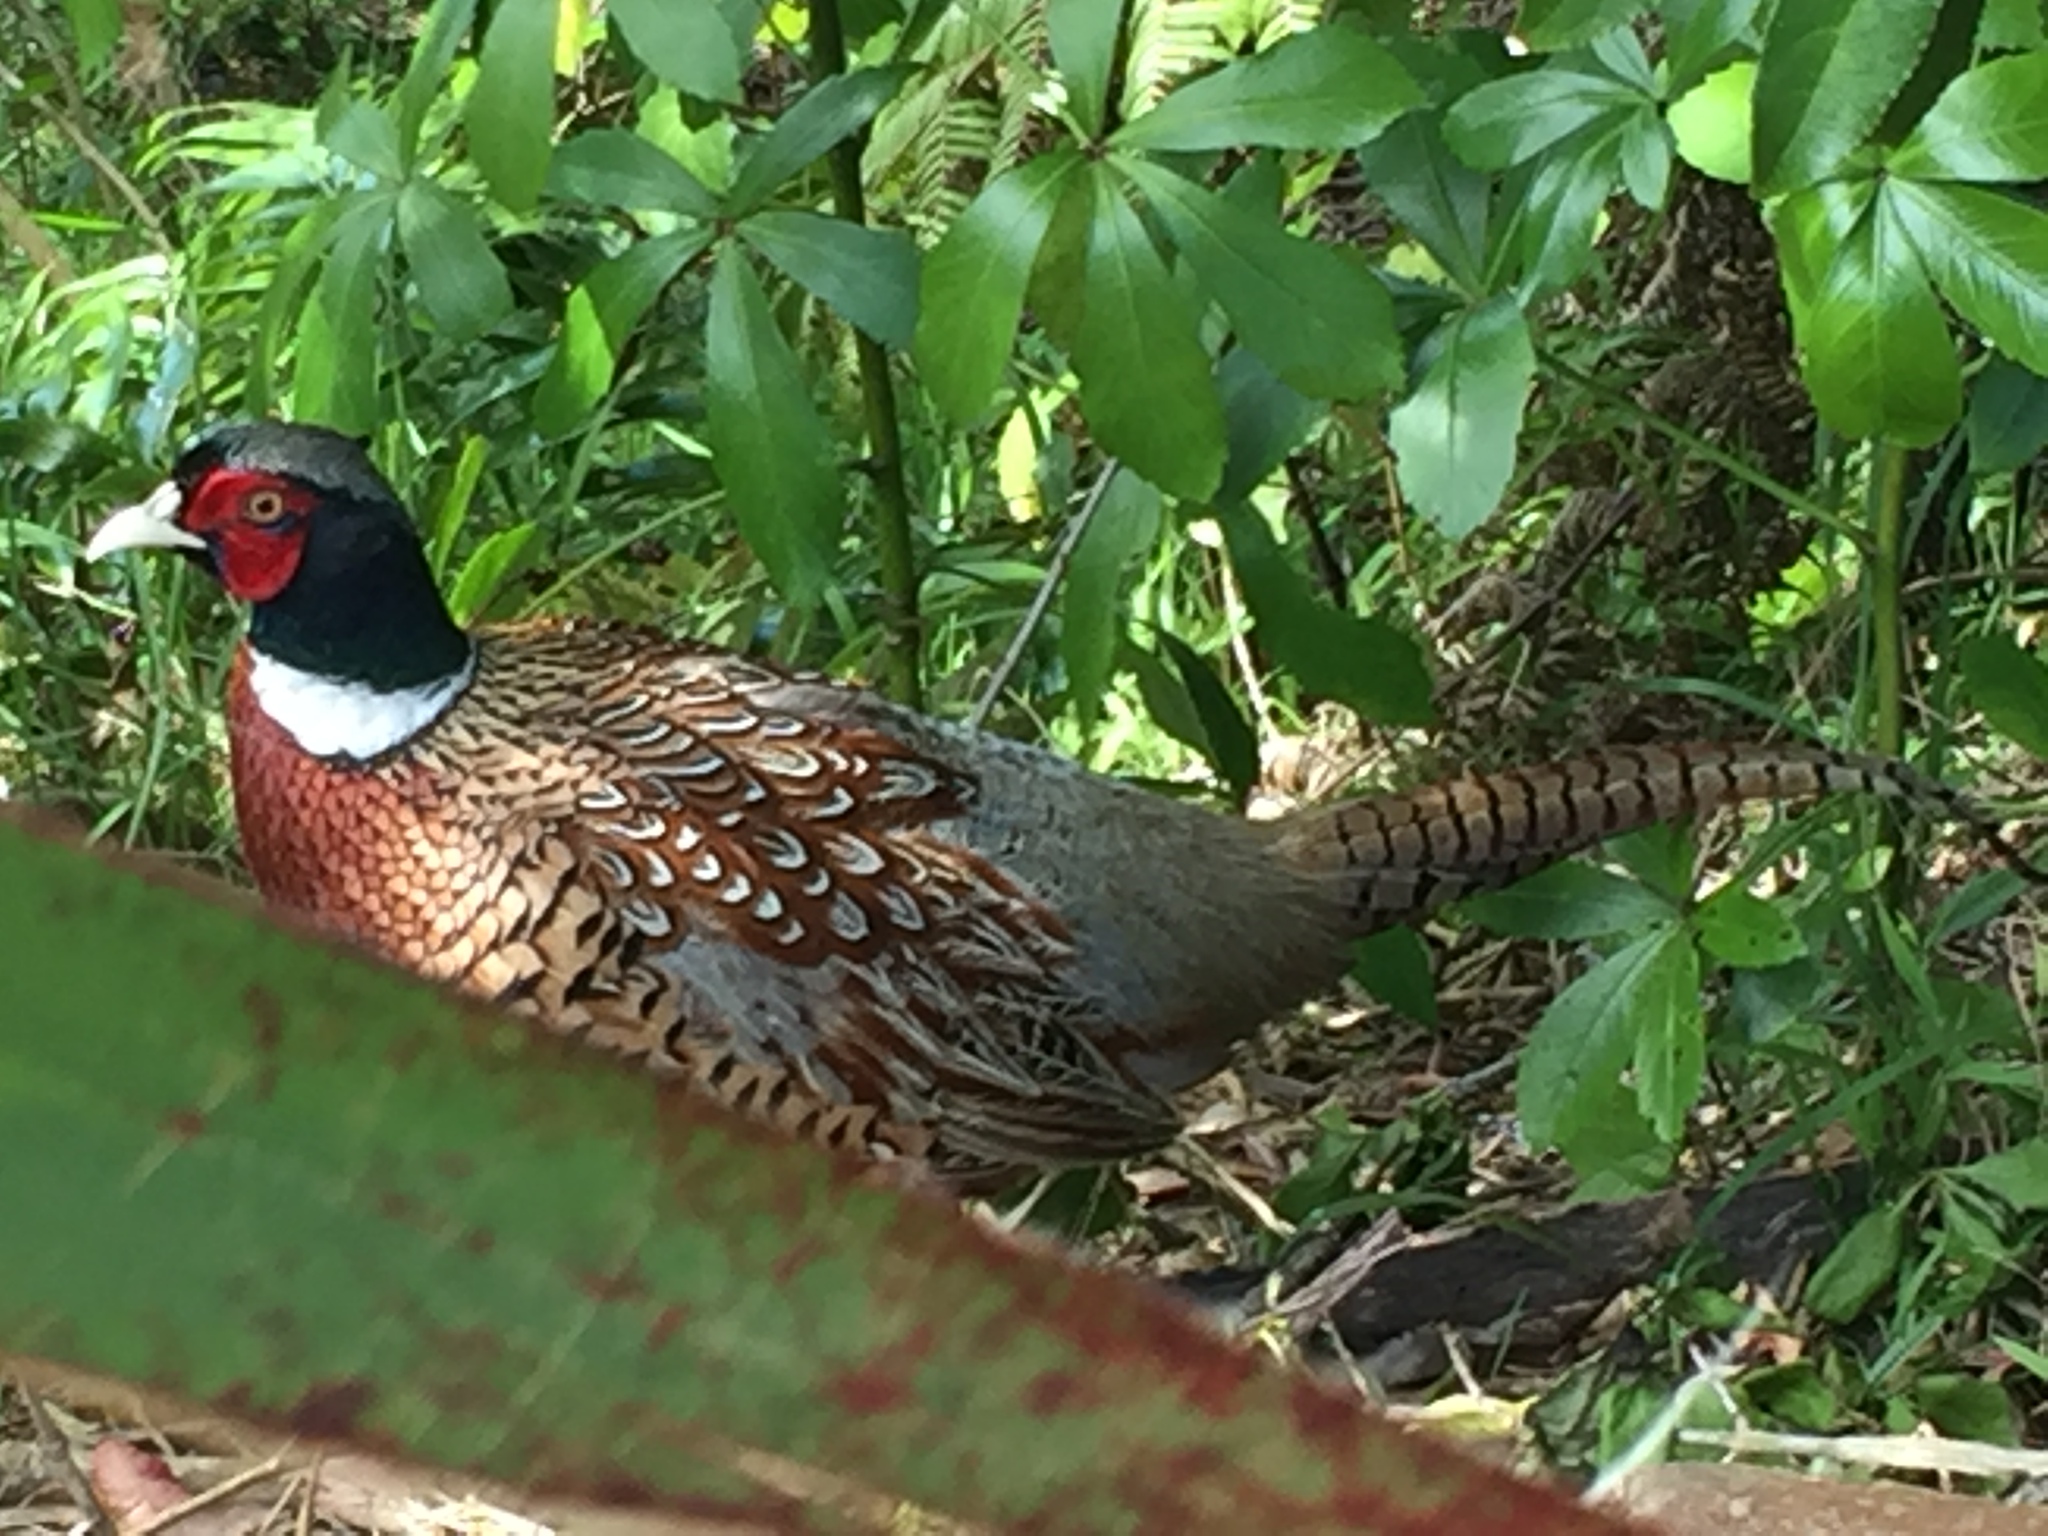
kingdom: Animalia
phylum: Chordata
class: Aves
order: Galliformes
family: Phasianidae
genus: Phasianus
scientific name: Phasianus colchicus
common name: Common pheasant
